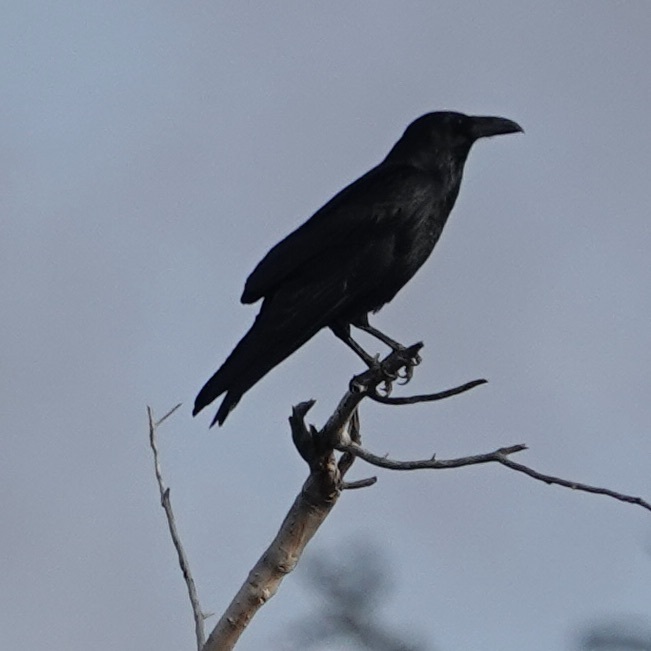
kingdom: Animalia
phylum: Chordata
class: Aves
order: Passeriformes
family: Corvidae
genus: Corvus
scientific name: Corvus corax
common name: Common raven
